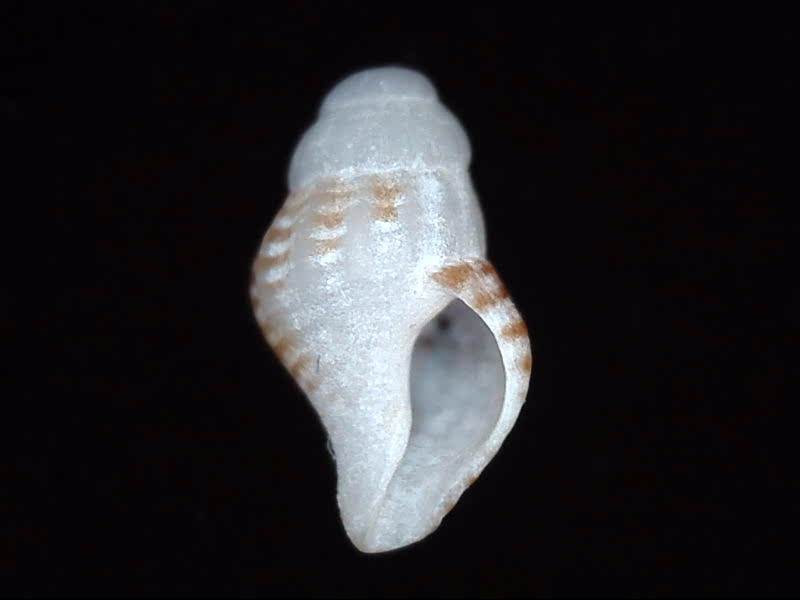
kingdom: Animalia
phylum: Mollusca
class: Gastropoda
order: Neogastropoda
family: Austrosiphonidae
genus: Penion
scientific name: Penion sulcatus
